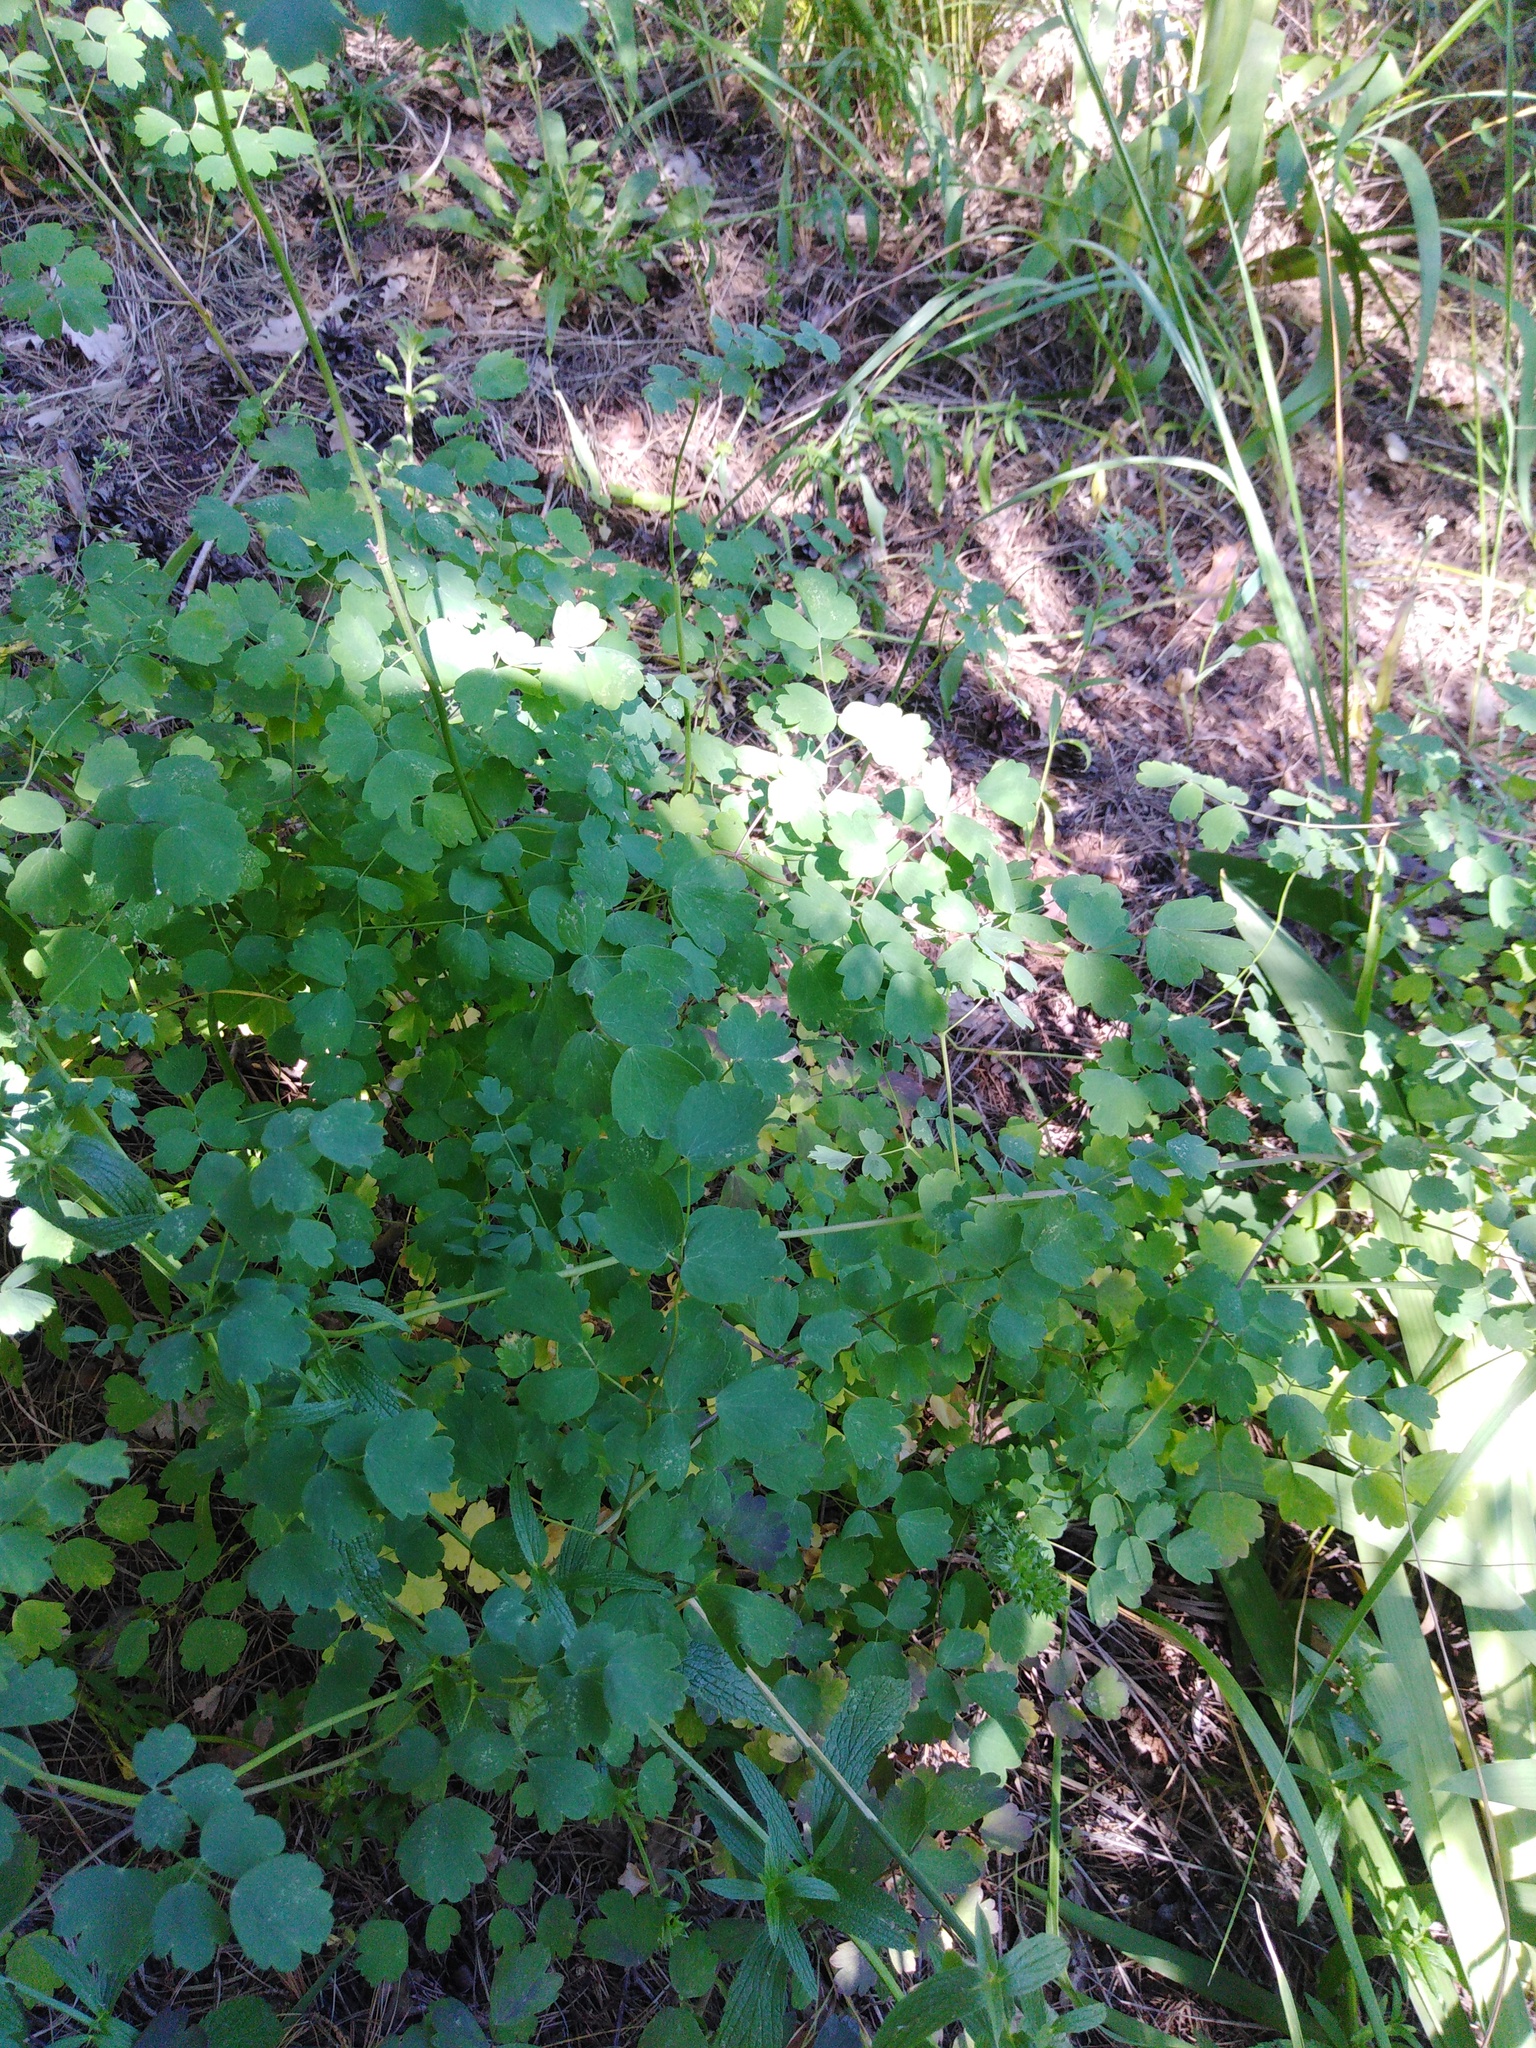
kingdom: Plantae
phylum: Tracheophyta
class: Magnoliopsida
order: Ranunculales
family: Ranunculaceae
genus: Thalictrum
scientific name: Thalictrum minus
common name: Lesser meadow-rue
